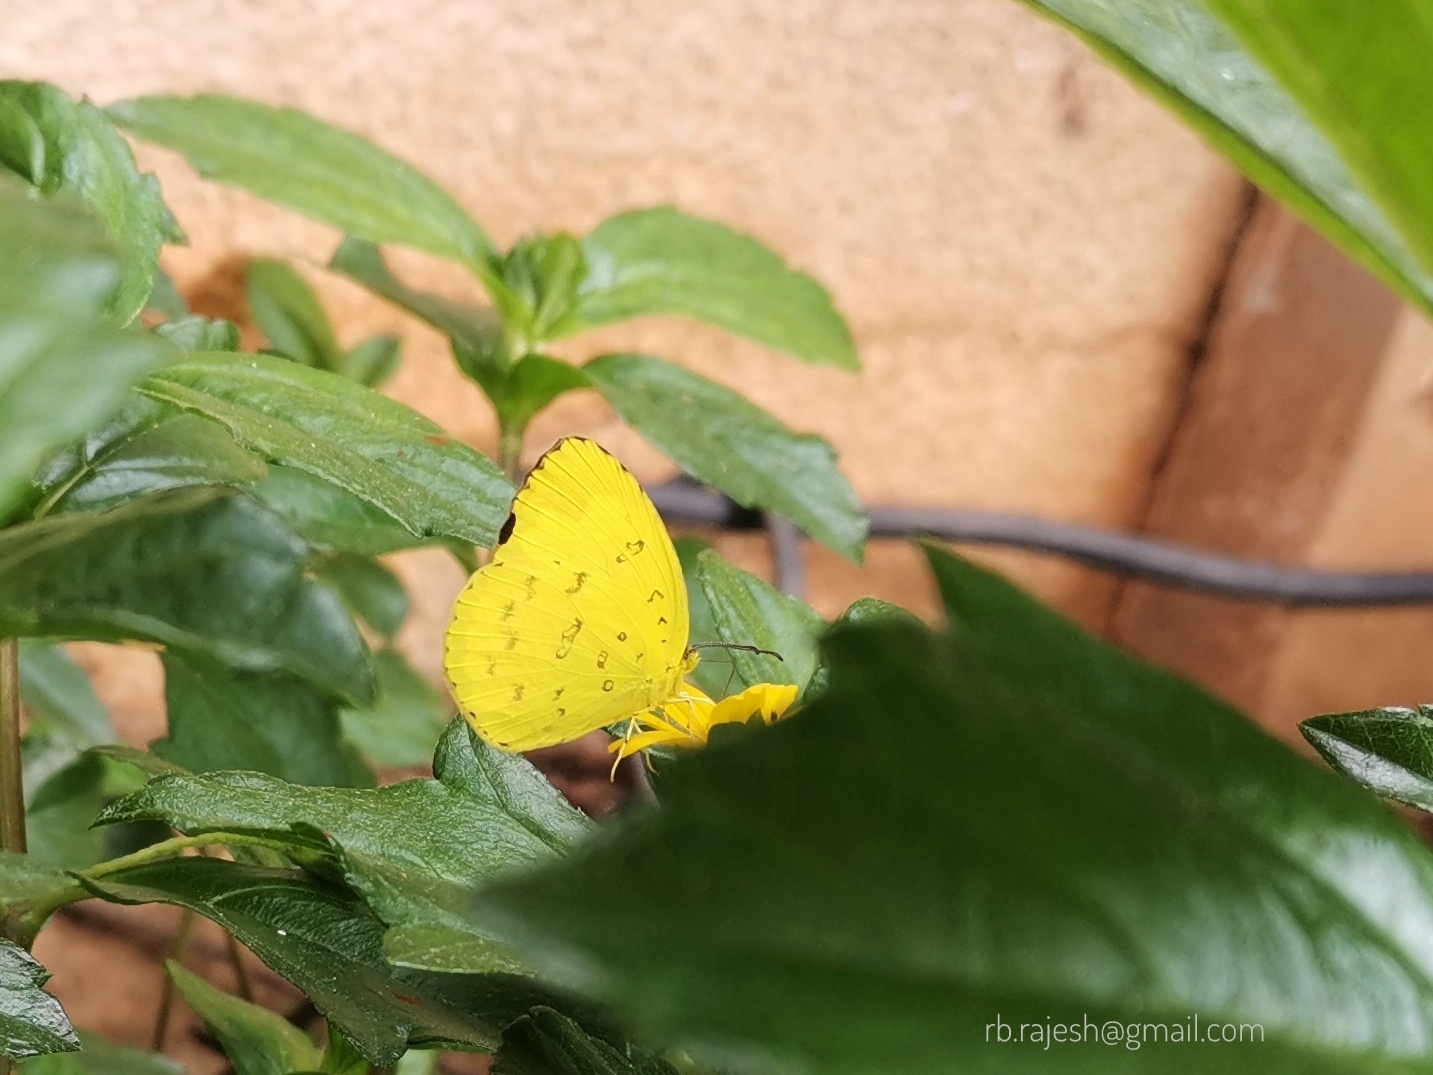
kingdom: Animalia
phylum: Arthropoda
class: Insecta
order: Lepidoptera
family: Pieridae
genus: Eurema
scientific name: Eurema blanda
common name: Three-spot grass yellow
